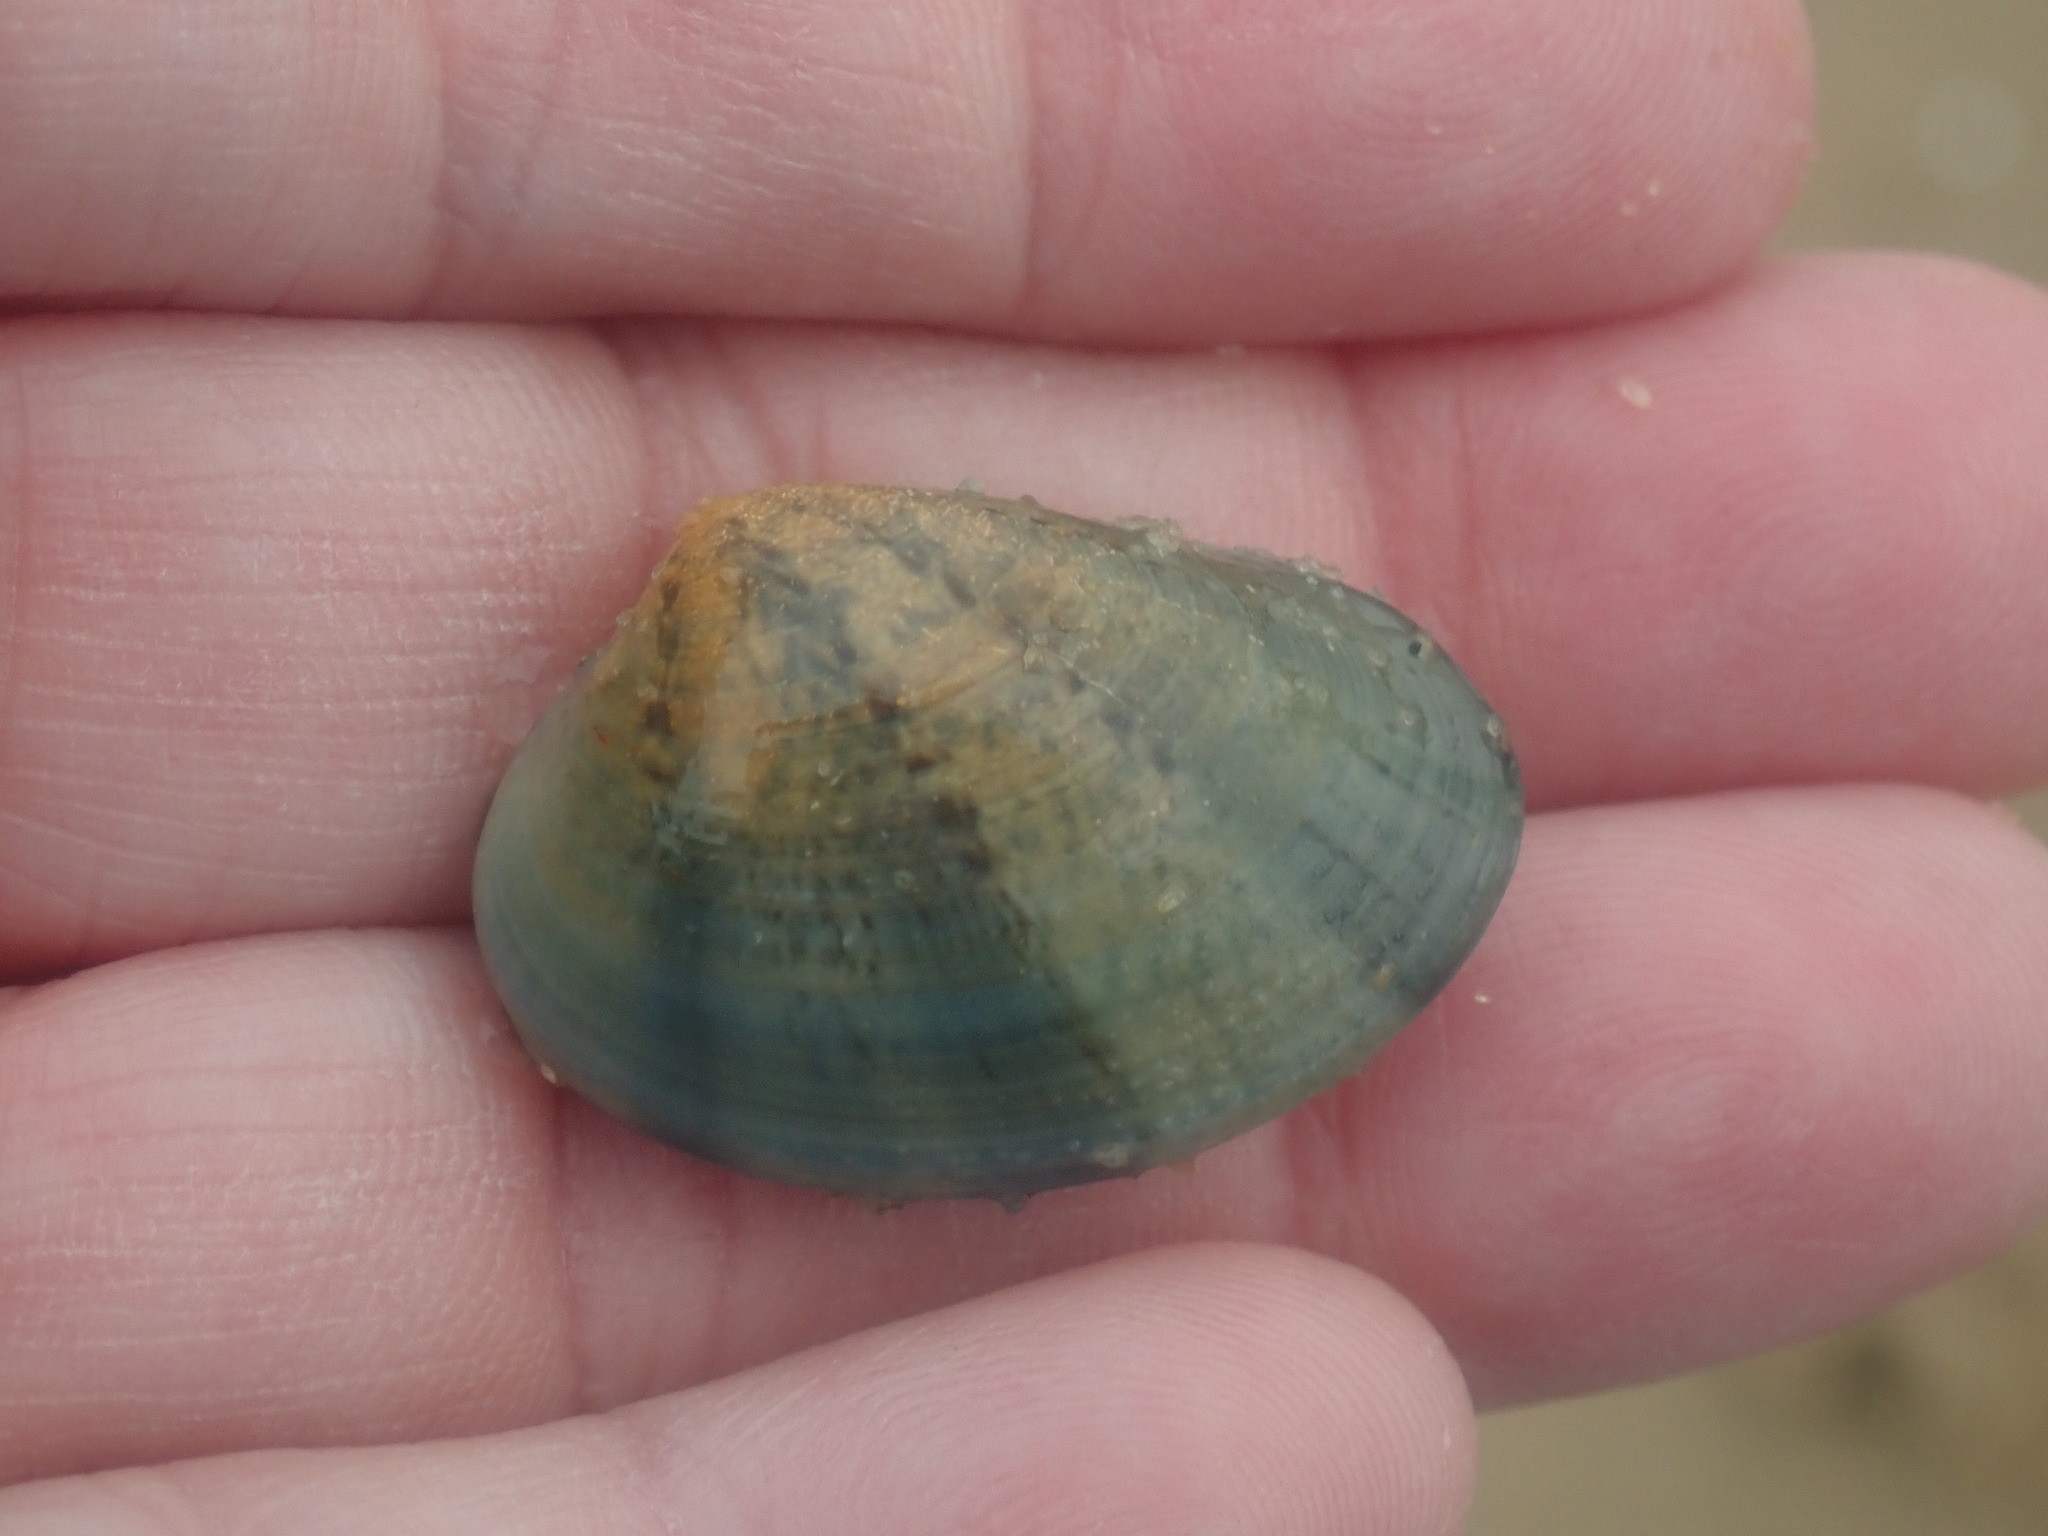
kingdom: Animalia
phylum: Mollusca
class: Bivalvia
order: Venerida
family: Veneridae
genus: Eumarcia
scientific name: Eumarcia fumigata
